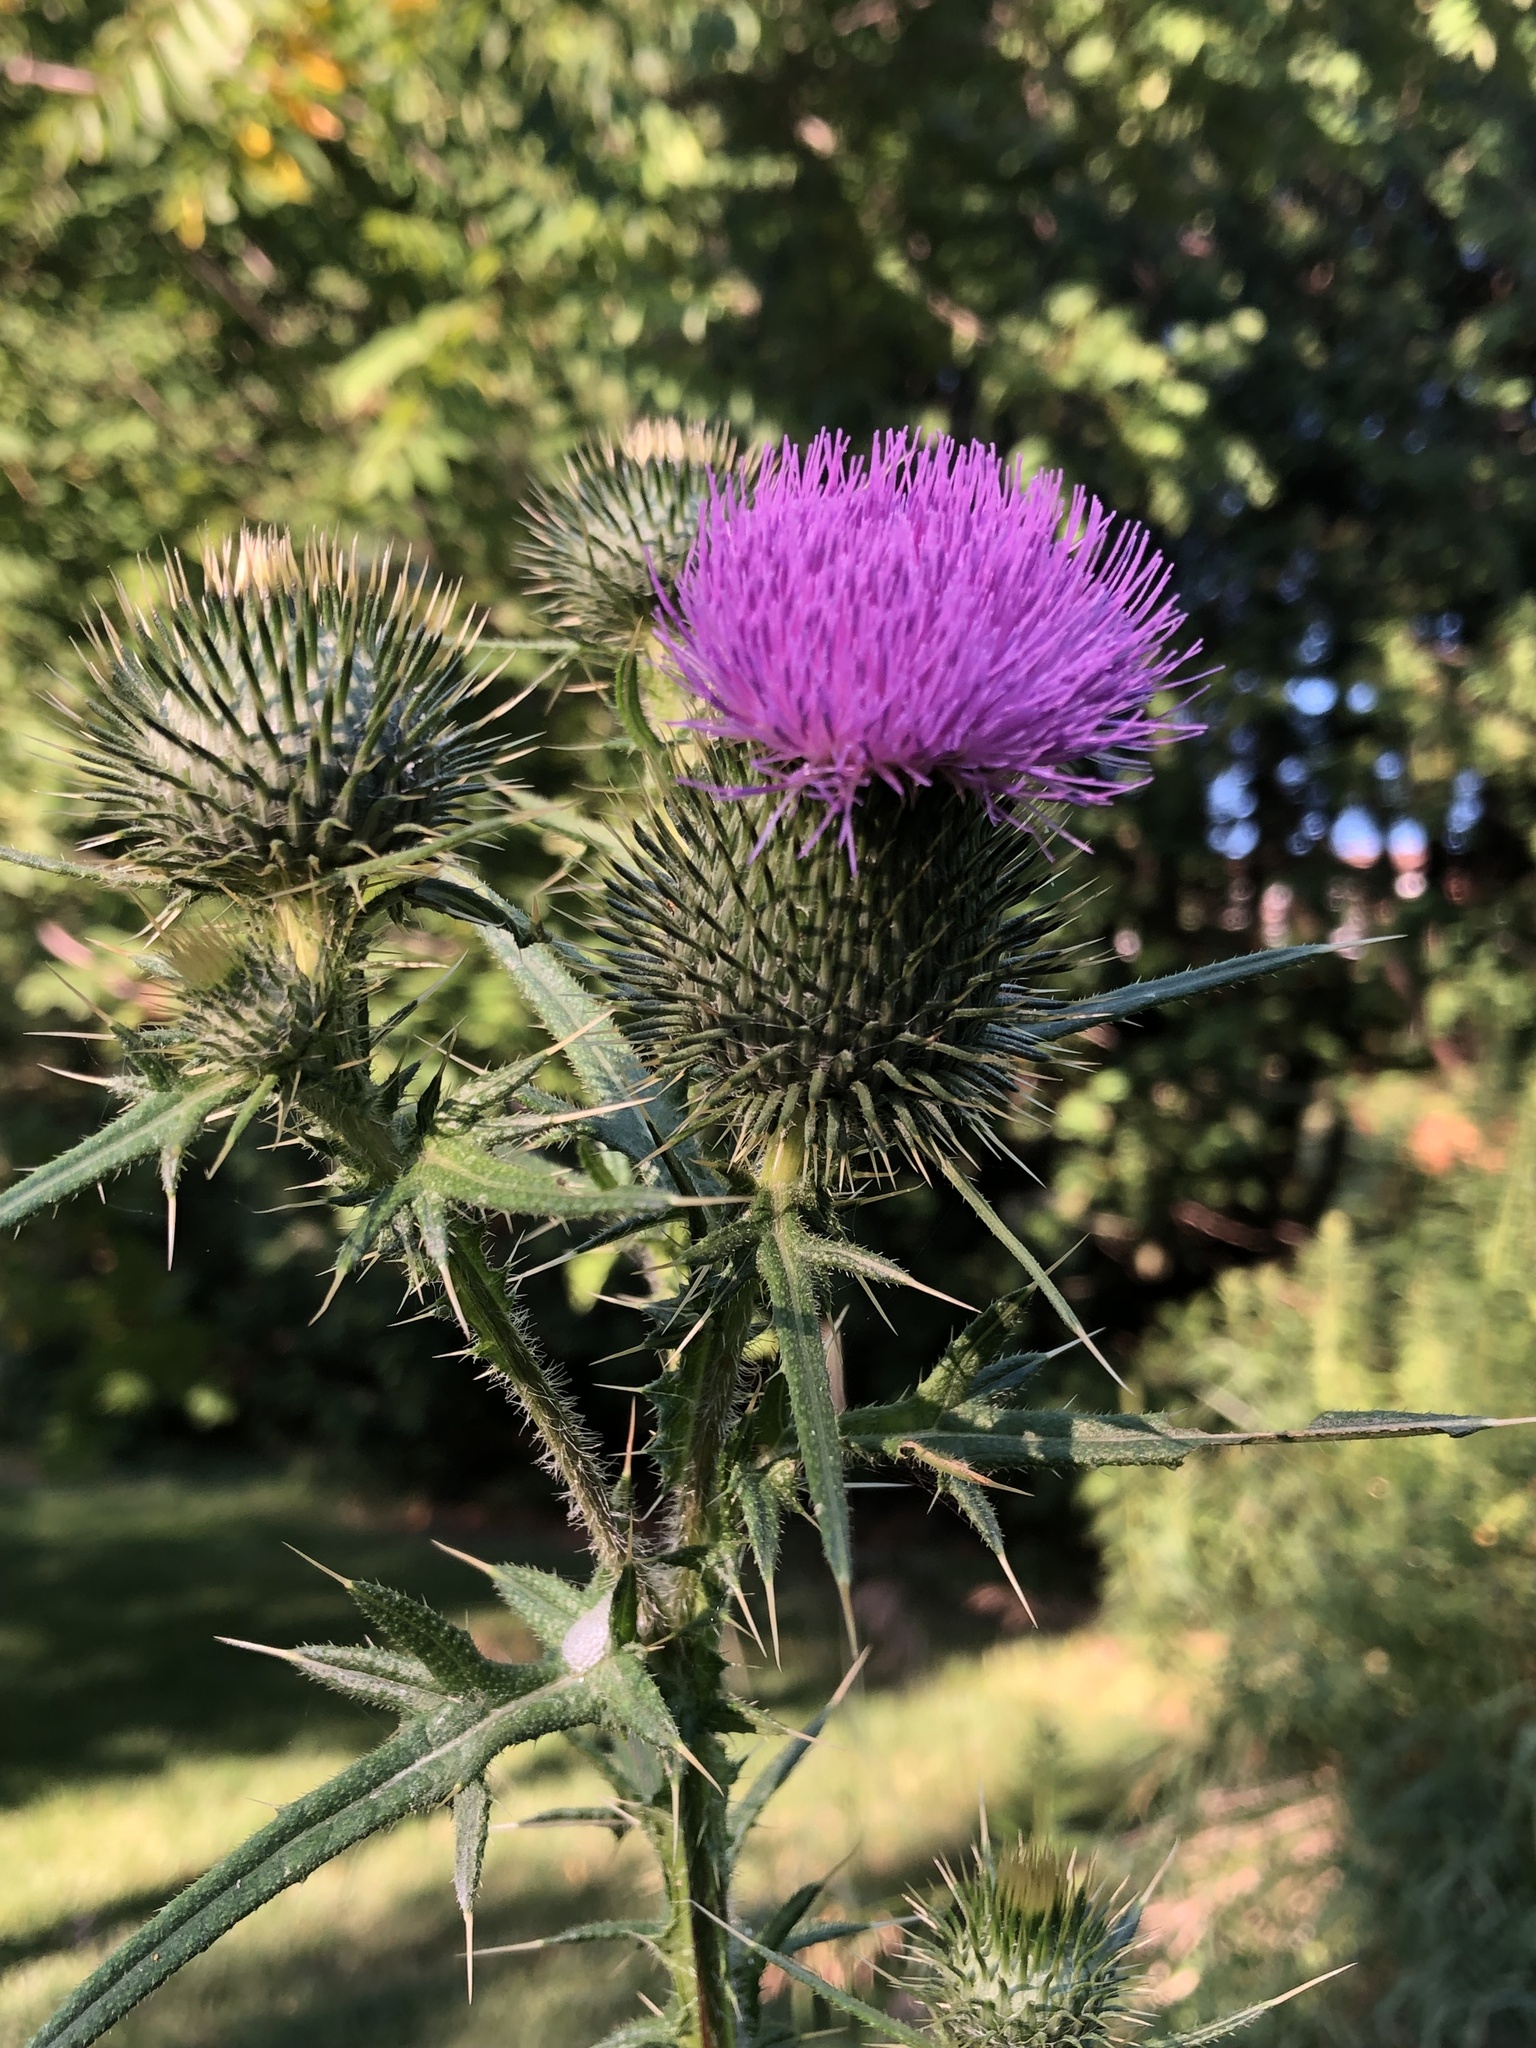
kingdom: Plantae
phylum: Tracheophyta
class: Magnoliopsida
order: Asterales
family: Asteraceae
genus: Cirsium
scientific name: Cirsium vulgare
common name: Bull thistle
